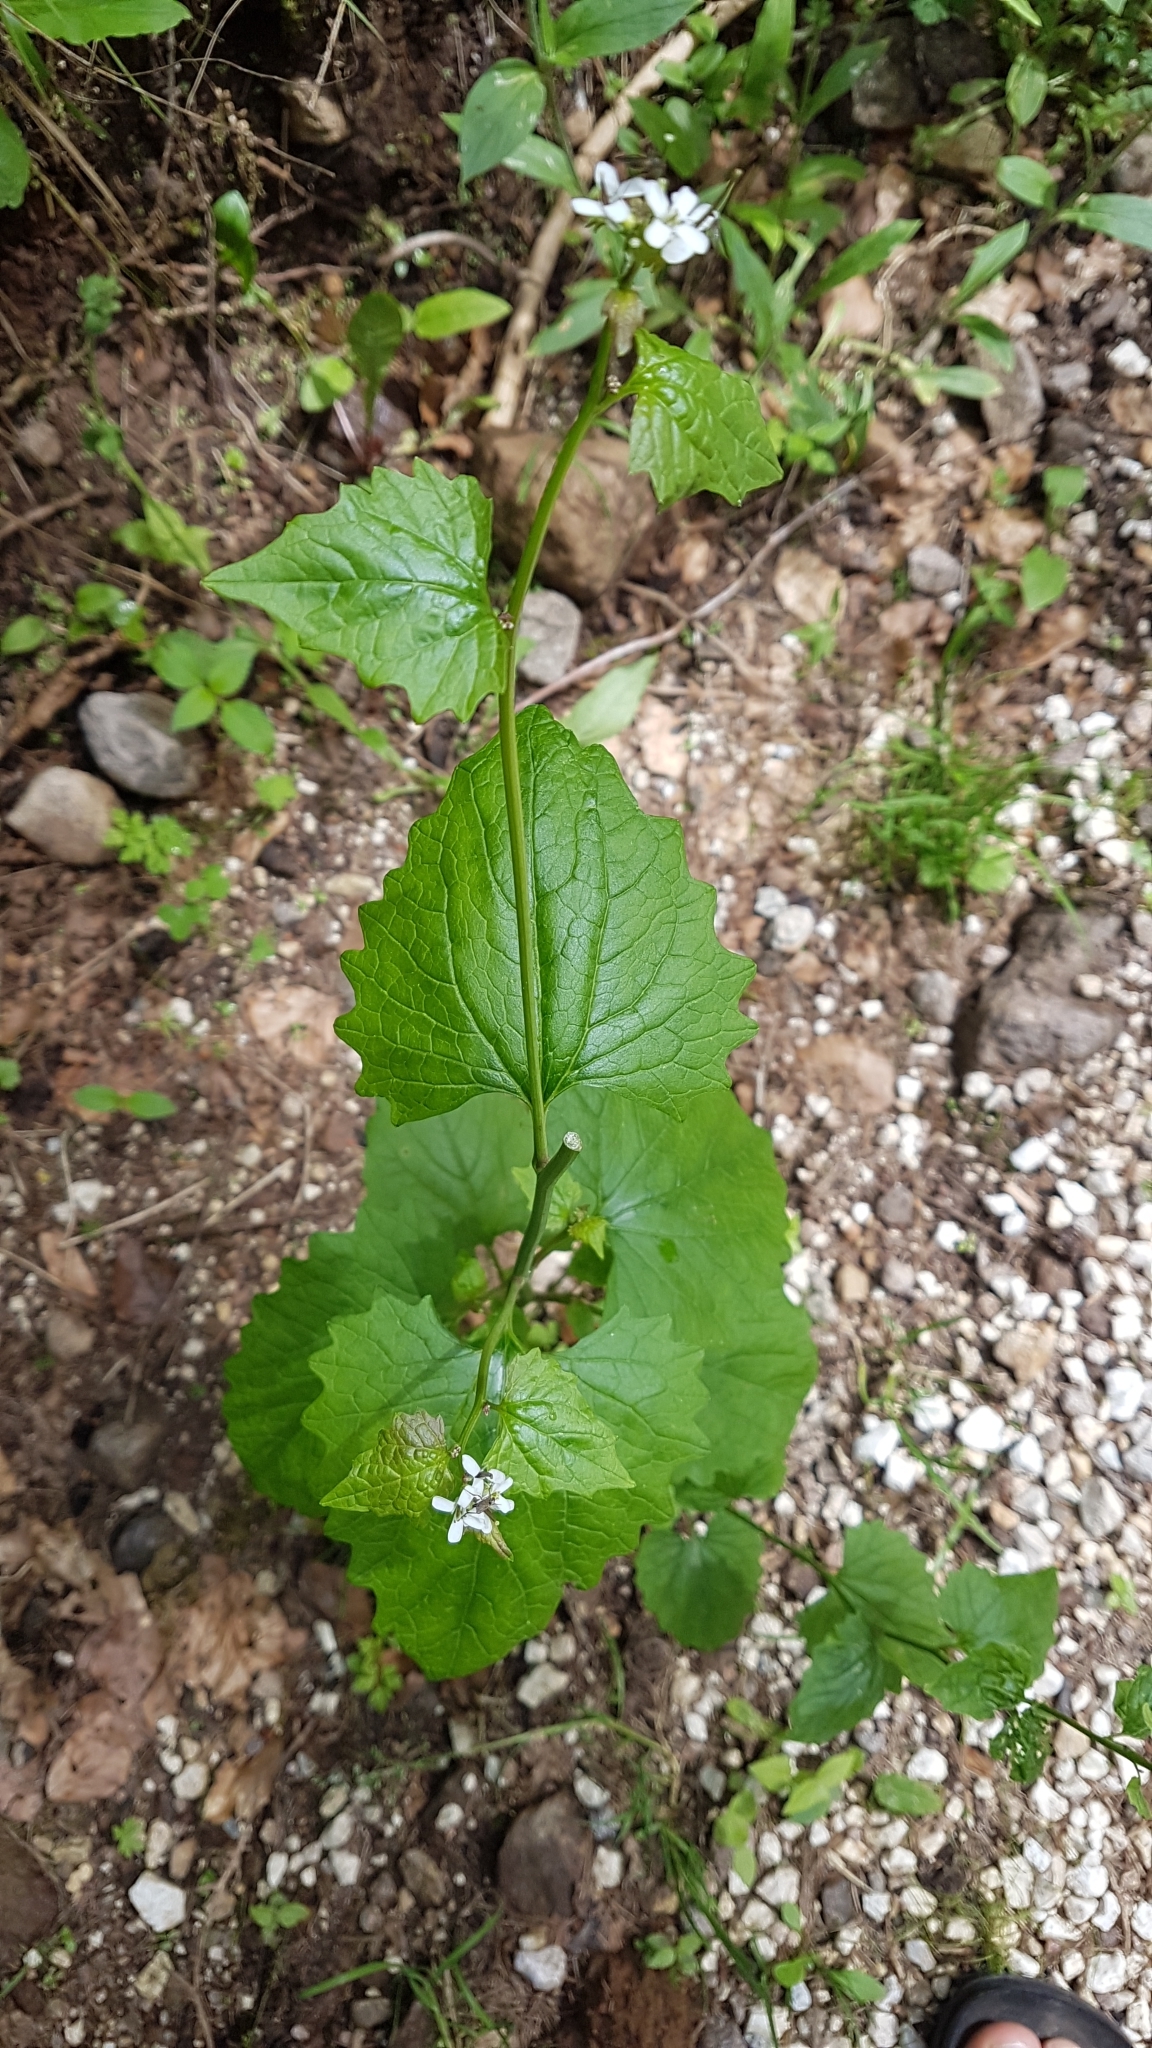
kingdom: Plantae
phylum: Tracheophyta
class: Magnoliopsida
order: Brassicales
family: Brassicaceae
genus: Alliaria
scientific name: Alliaria petiolata
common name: Garlic mustard
